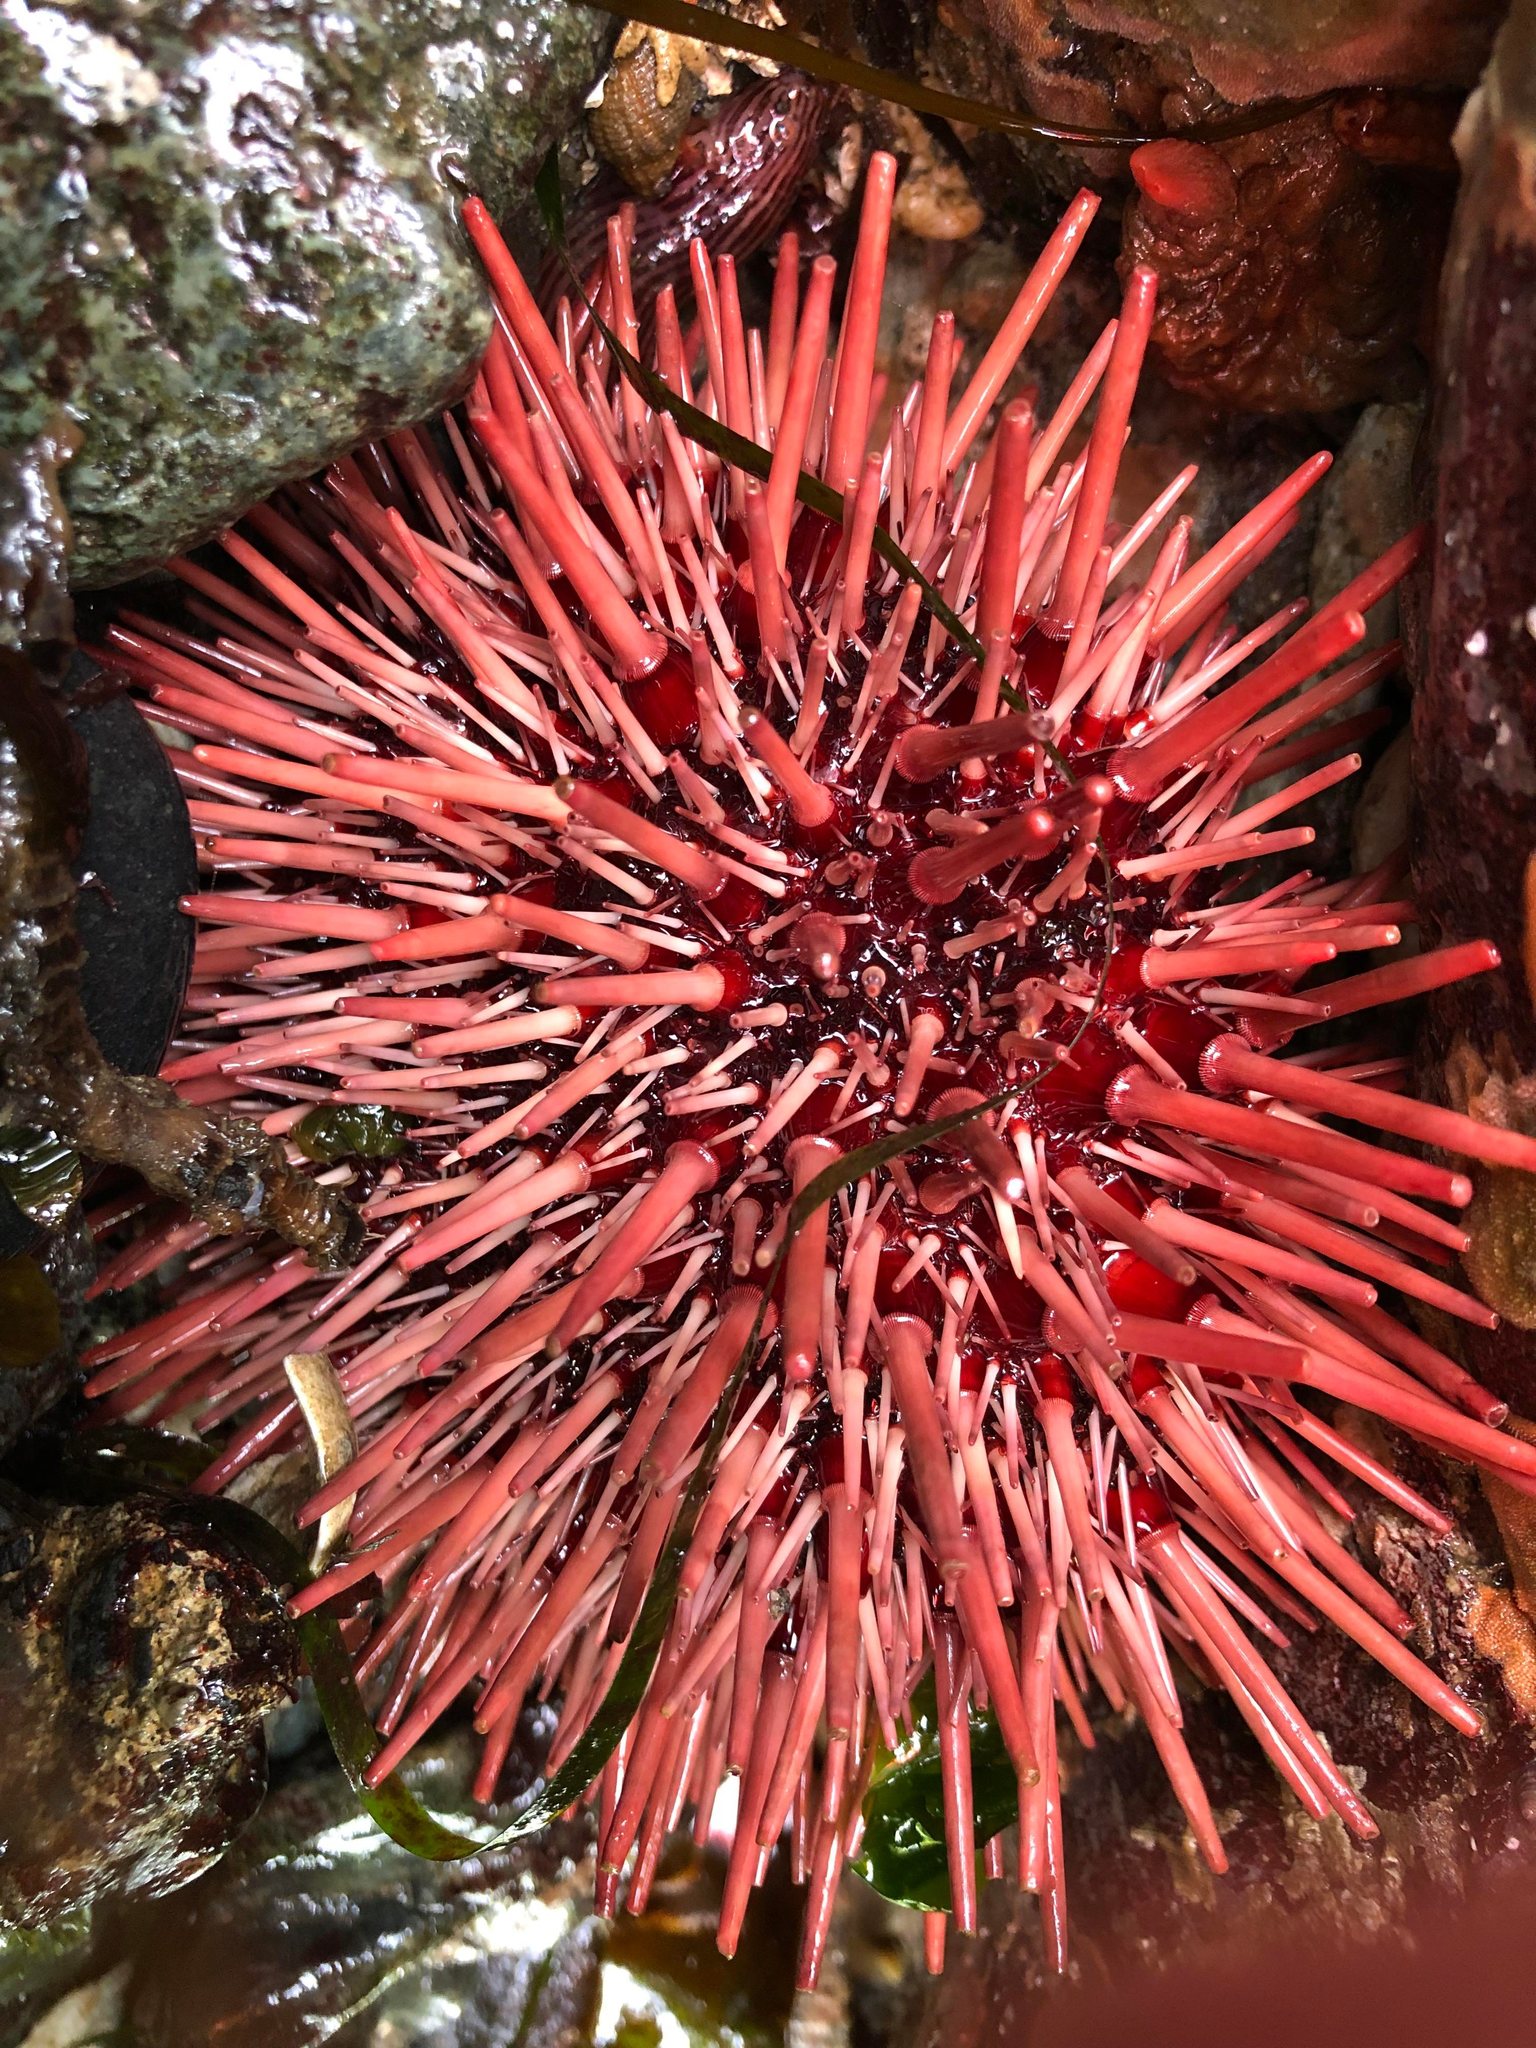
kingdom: Animalia
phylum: Echinodermata
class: Echinoidea
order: Camarodonta
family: Strongylocentrotidae
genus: Mesocentrotus
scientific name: Mesocentrotus franciscanus
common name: Red sea urchin
